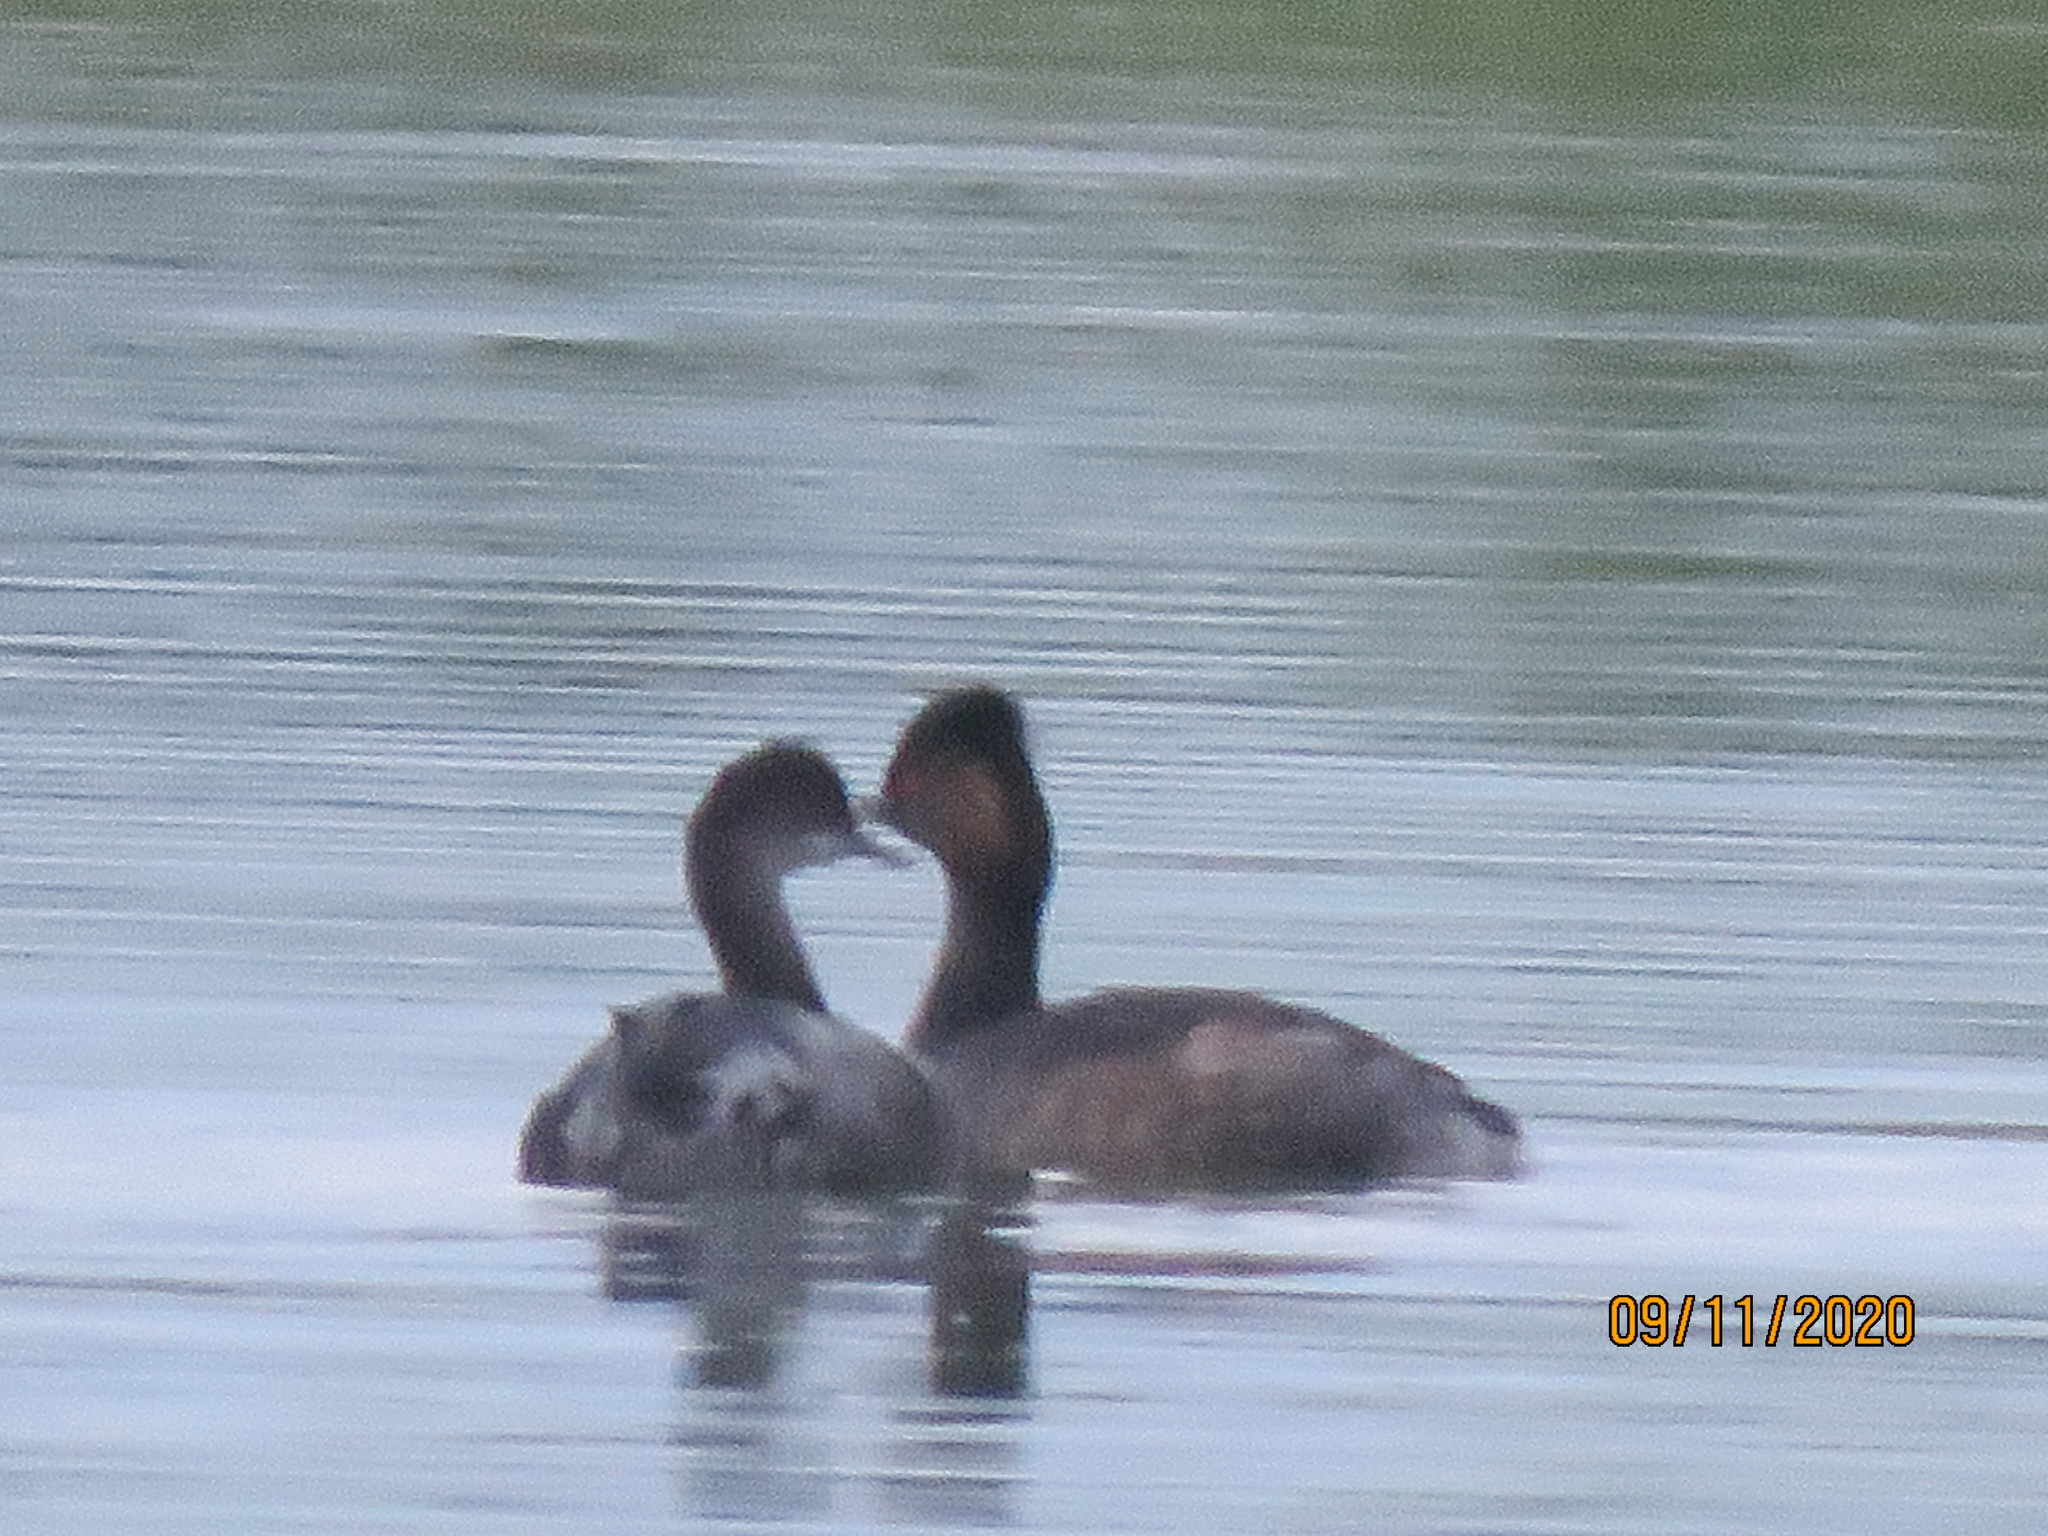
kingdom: Animalia
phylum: Chordata
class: Aves
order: Podicipediformes
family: Podicipedidae
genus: Podiceps
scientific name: Podiceps nigricollis
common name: Black-necked grebe
